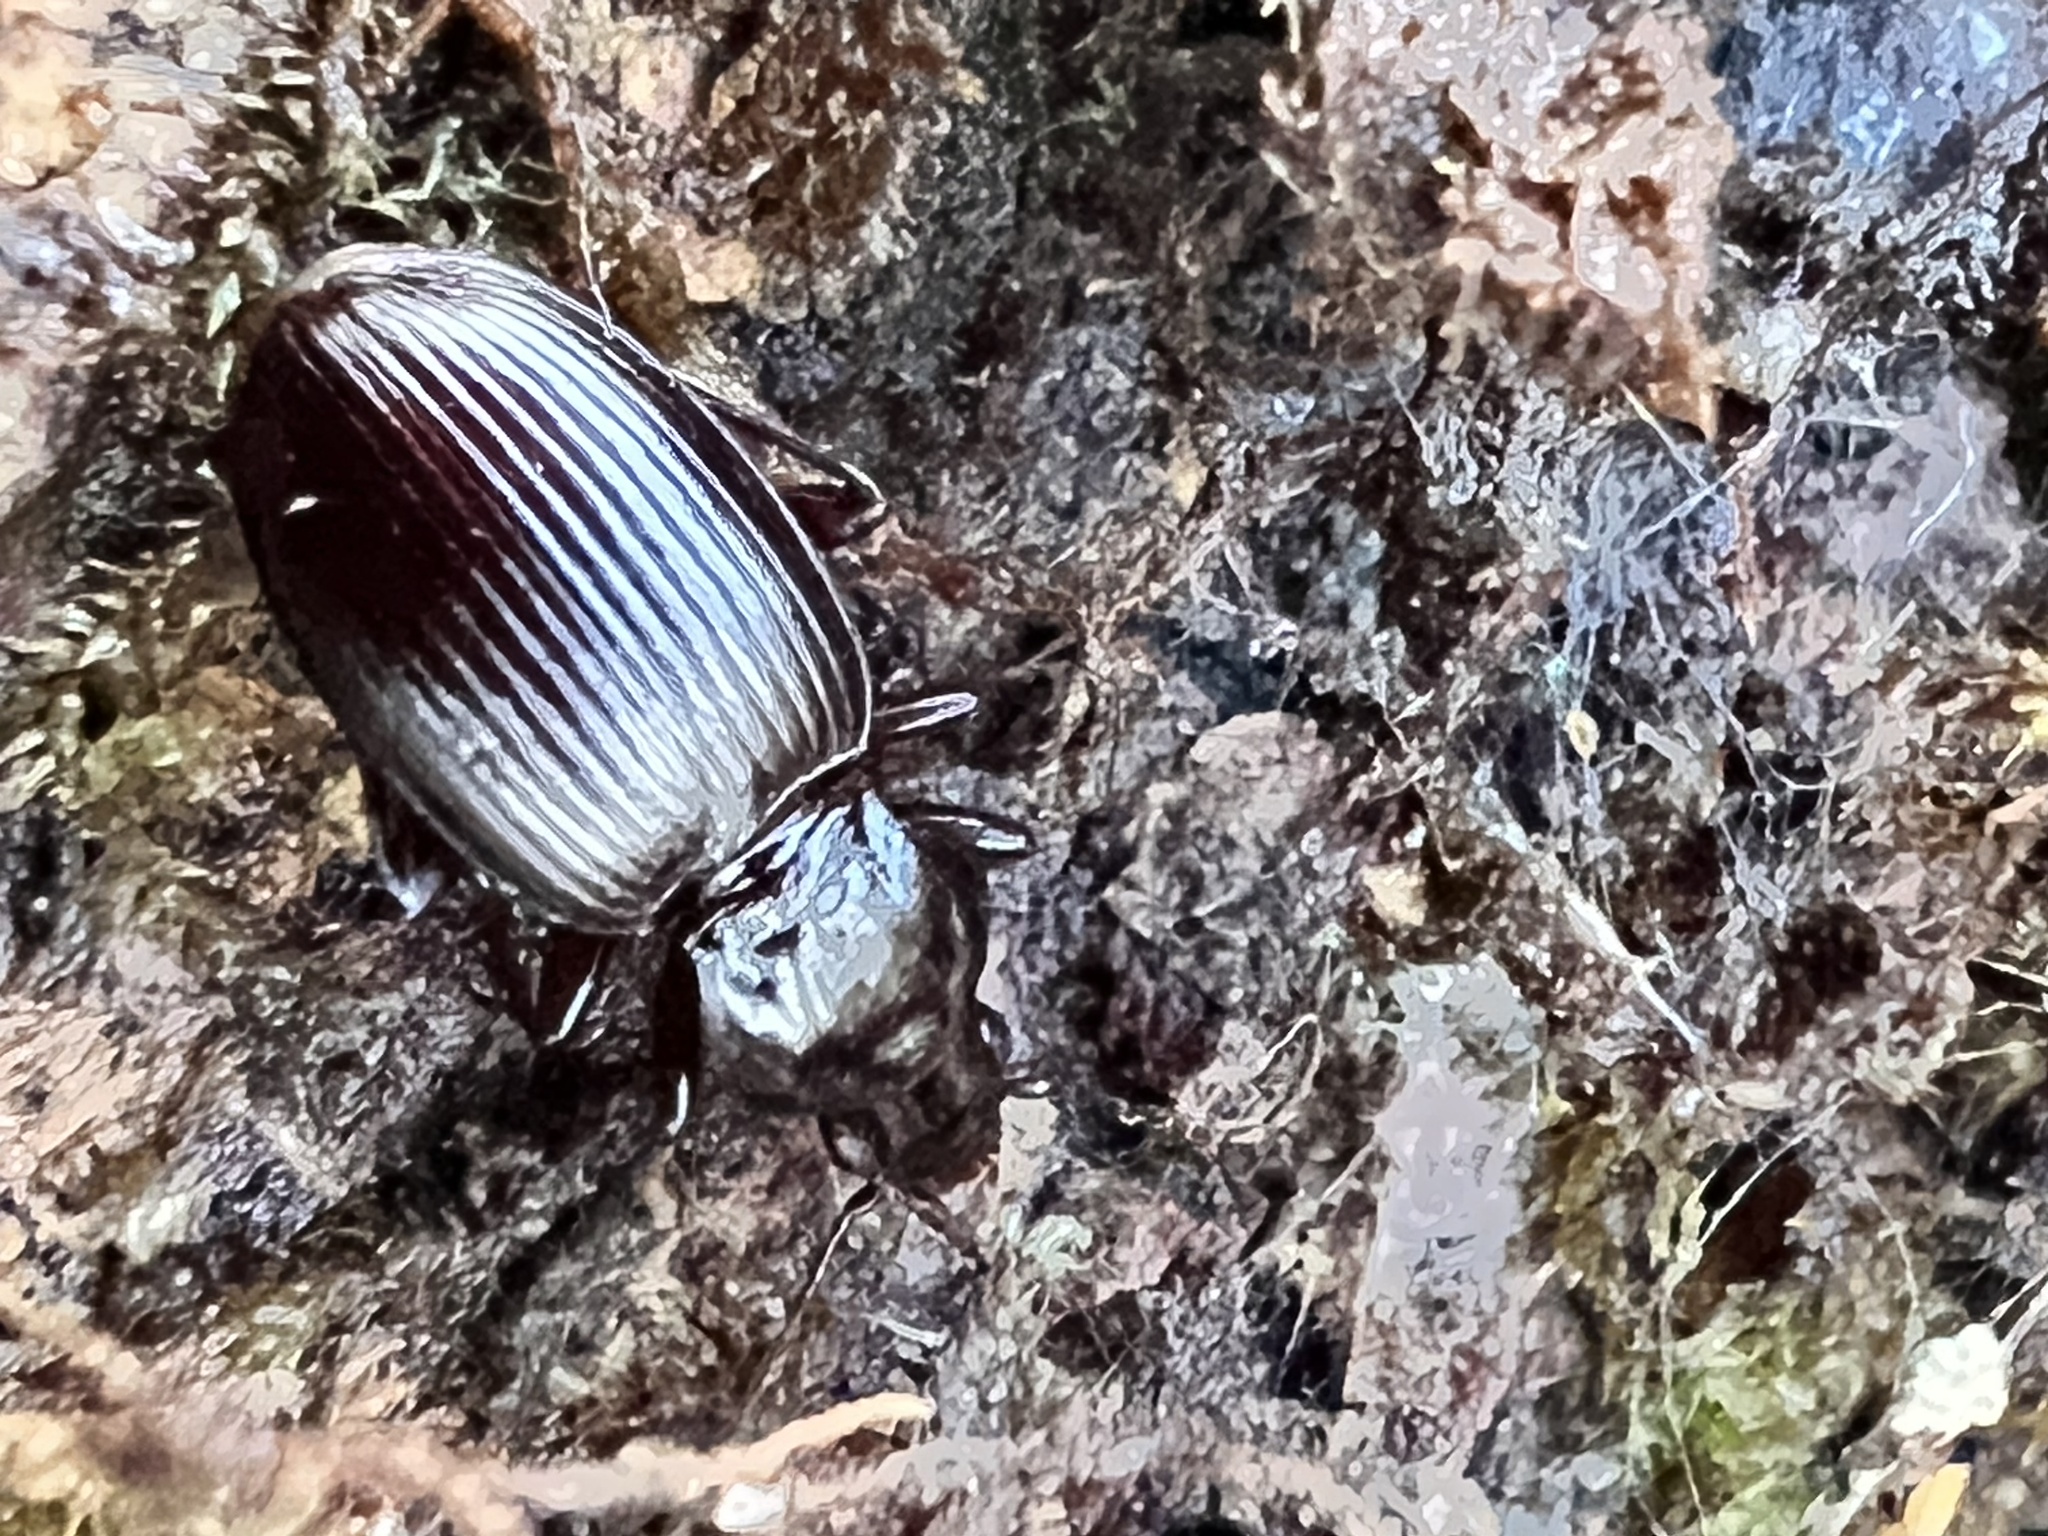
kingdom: Animalia
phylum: Arthropoda
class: Insecta
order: Coleoptera
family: Carabidae
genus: Gastrellarius
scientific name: Gastrellarius honestus
